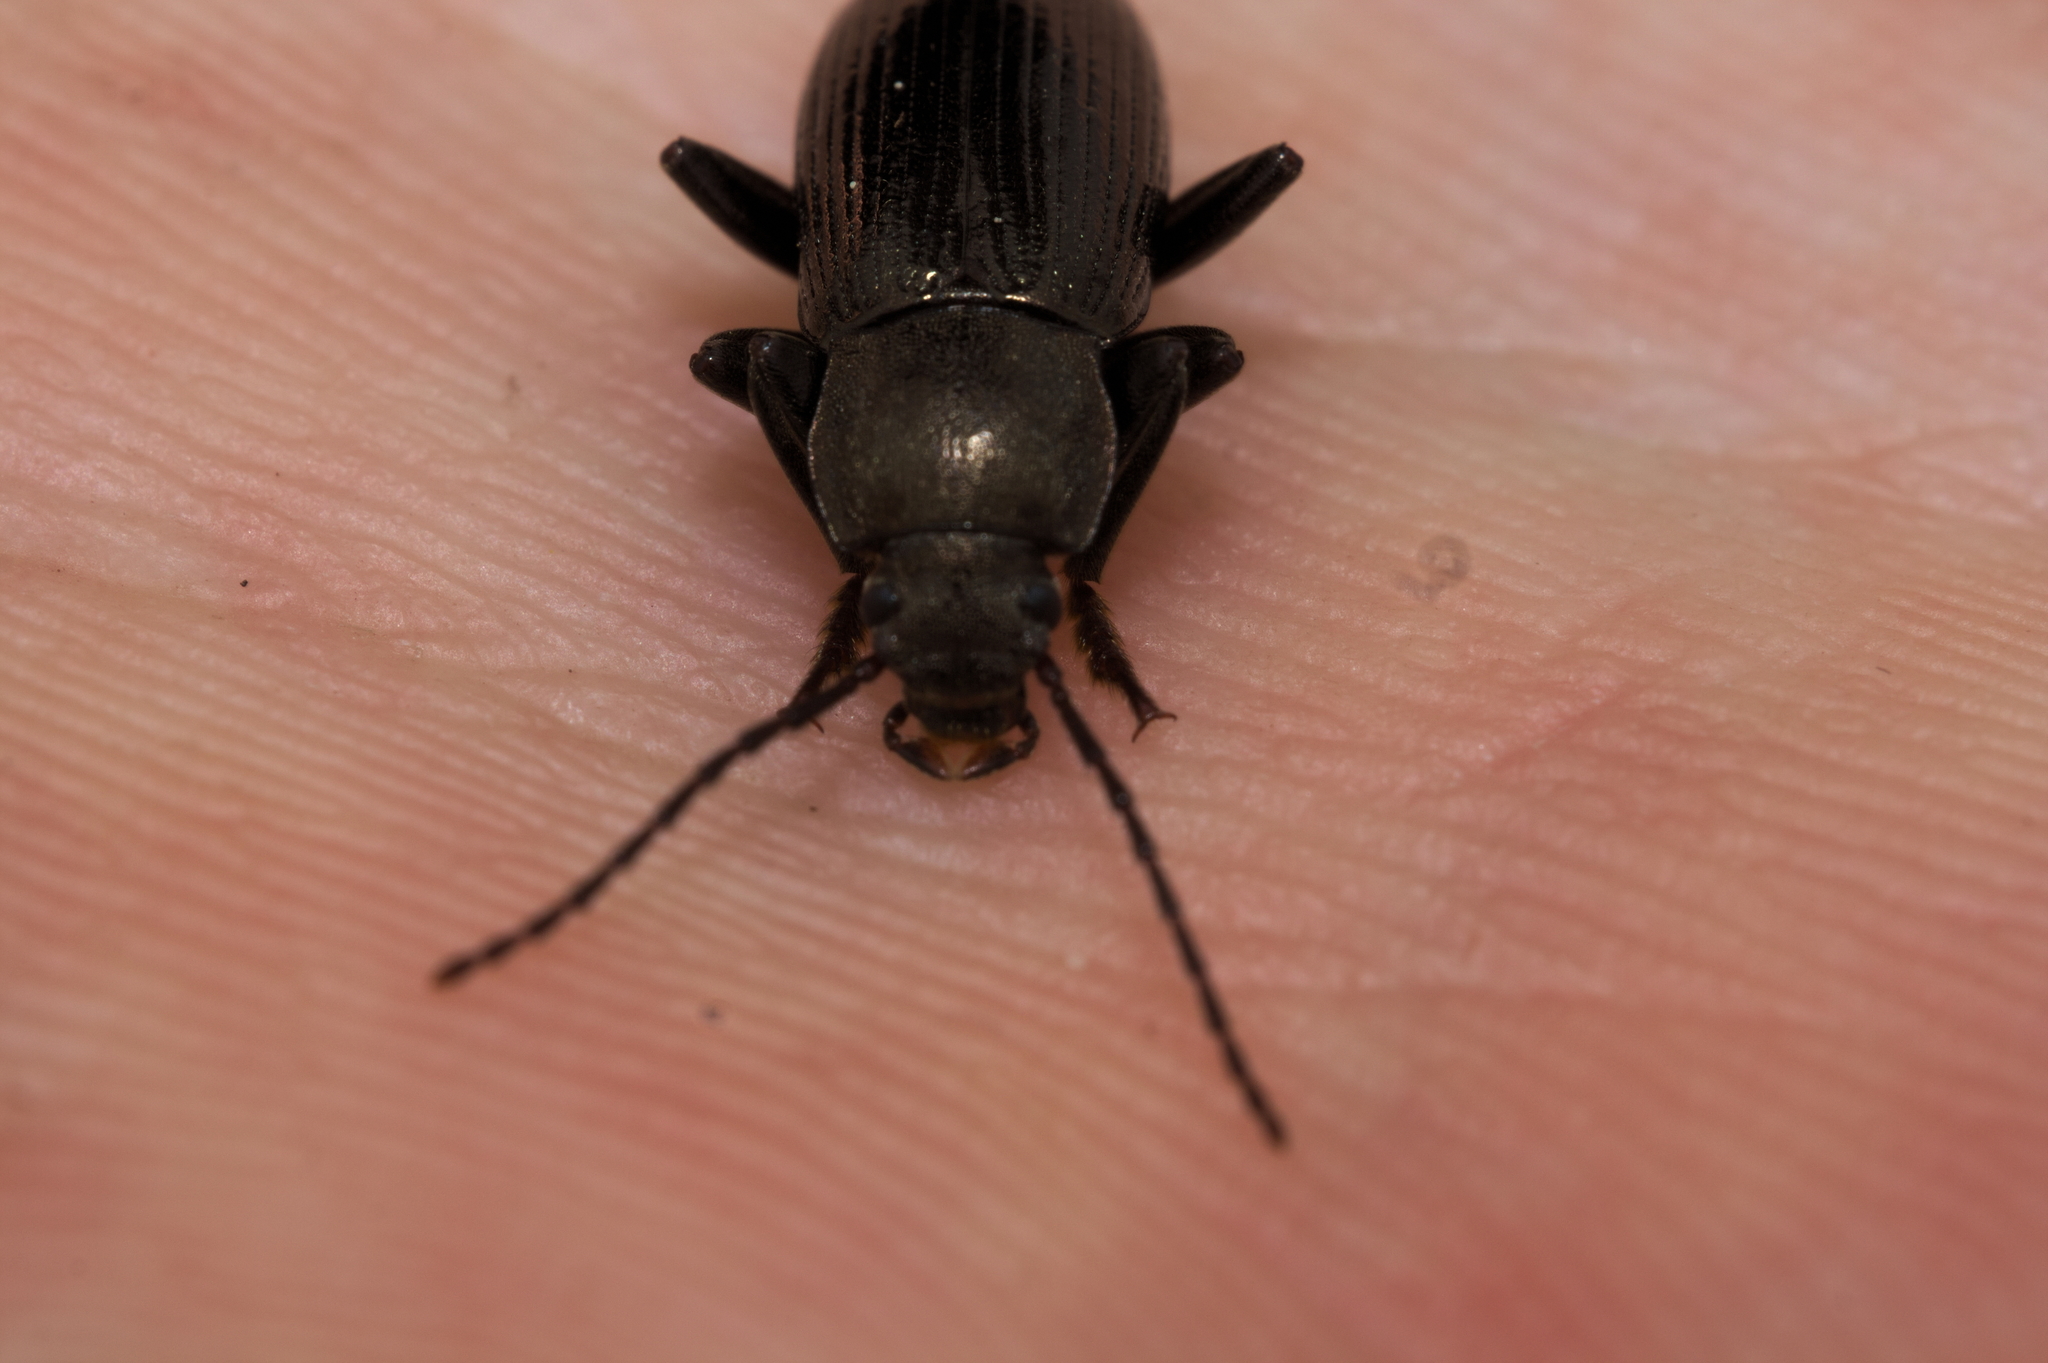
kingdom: Animalia
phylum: Arthropoda
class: Insecta
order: Coleoptera
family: Tenebrionidae
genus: Stenomax
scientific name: Stenomax aeneus
